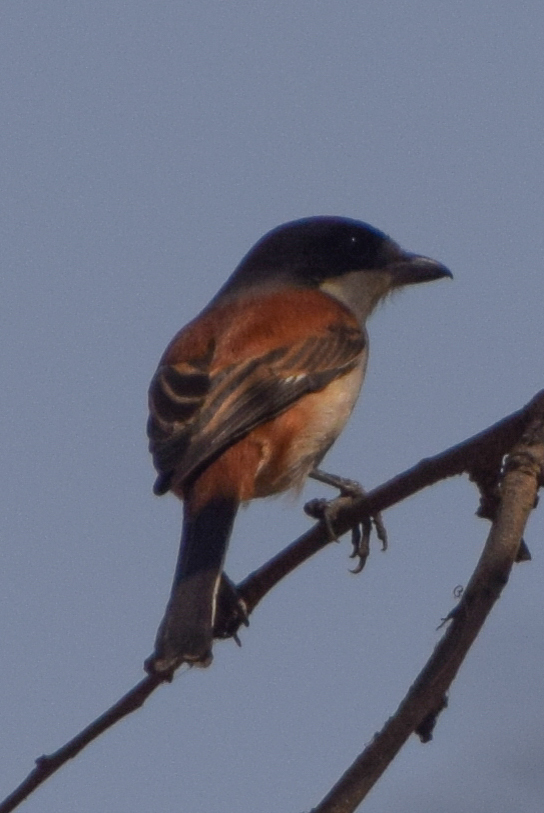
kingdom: Animalia
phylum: Chordata
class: Aves
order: Passeriformes
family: Laniidae
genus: Lanius
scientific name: Lanius collurioides
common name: Burmese shrike
